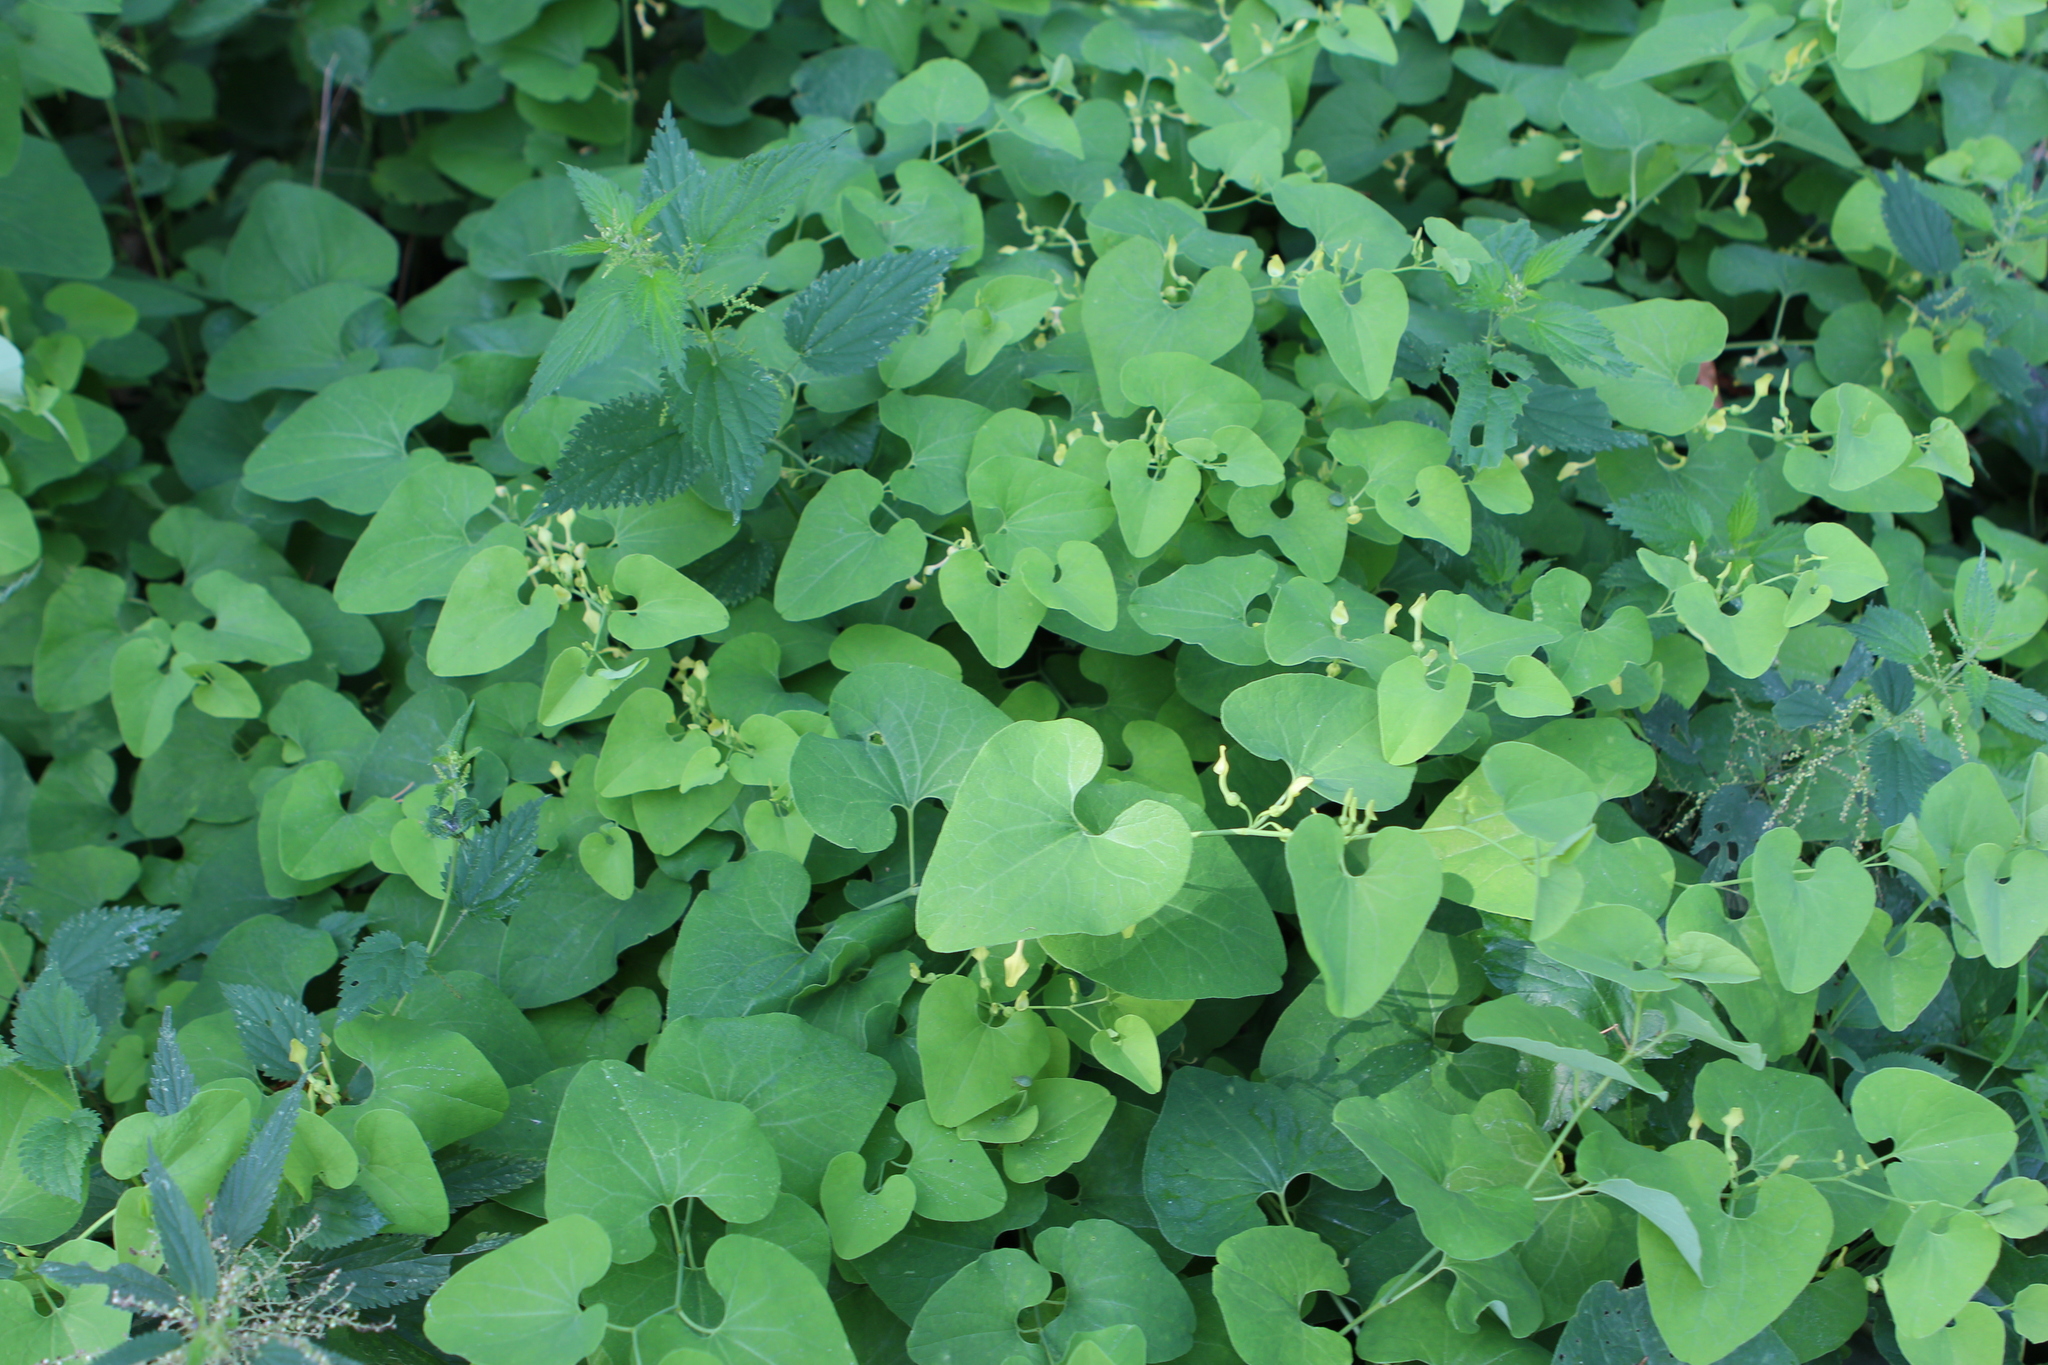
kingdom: Plantae
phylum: Tracheophyta
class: Magnoliopsida
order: Piperales
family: Aristolochiaceae
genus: Aristolochia
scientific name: Aristolochia clematitis
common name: Birthwort
